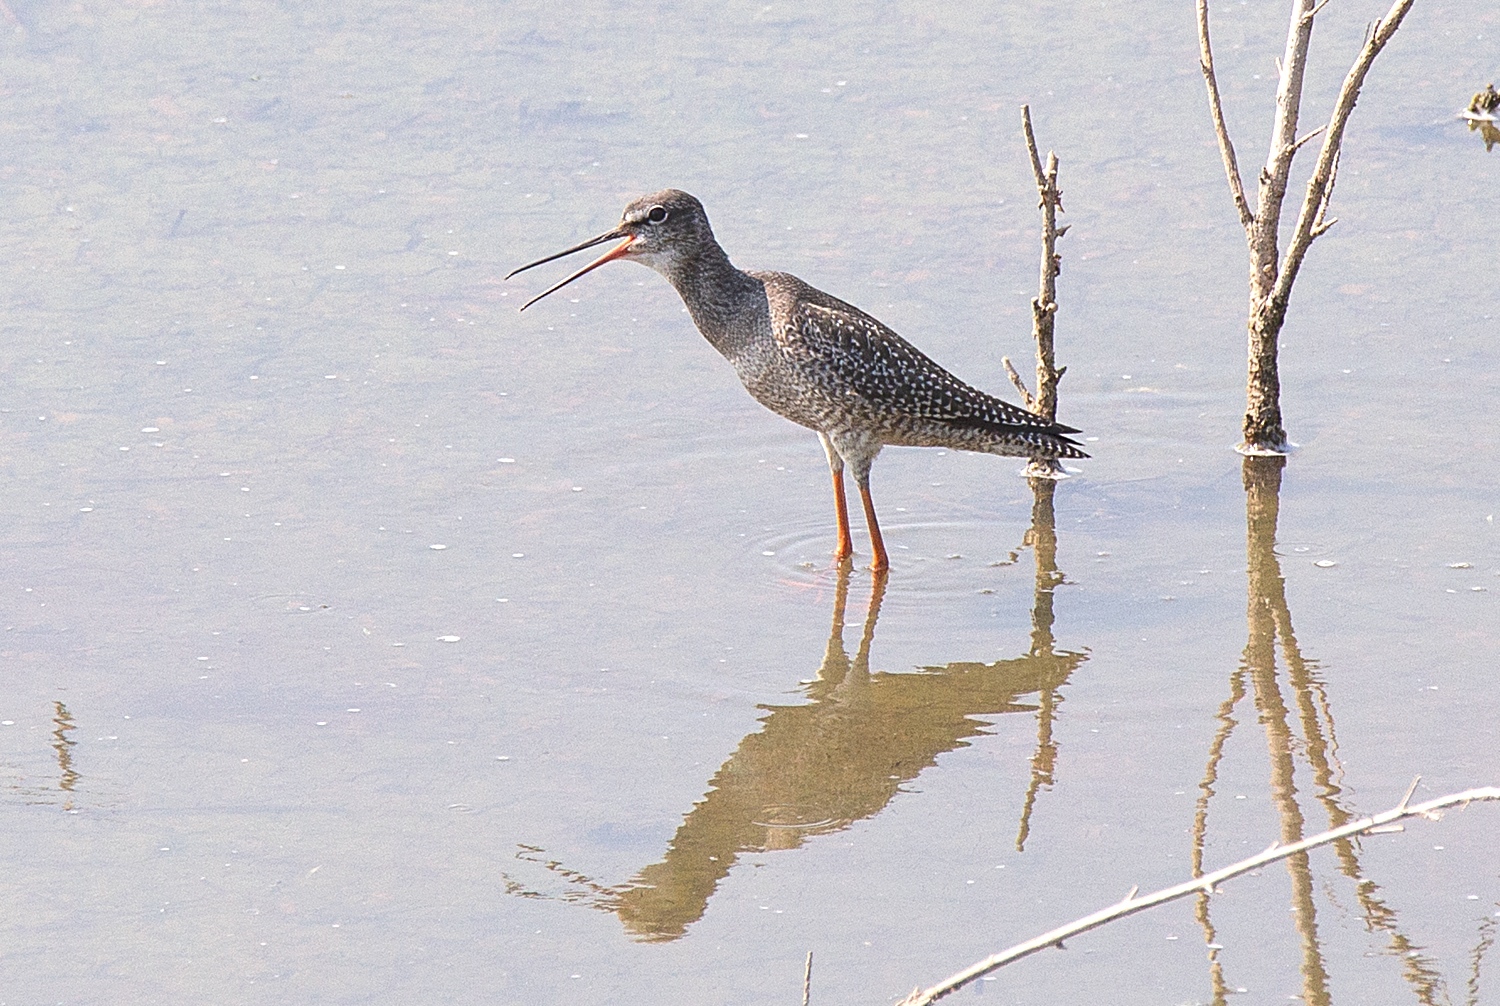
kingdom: Animalia
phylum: Chordata
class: Aves
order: Charadriiformes
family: Scolopacidae
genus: Tringa
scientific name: Tringa erythropus
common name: Spotted redshank
